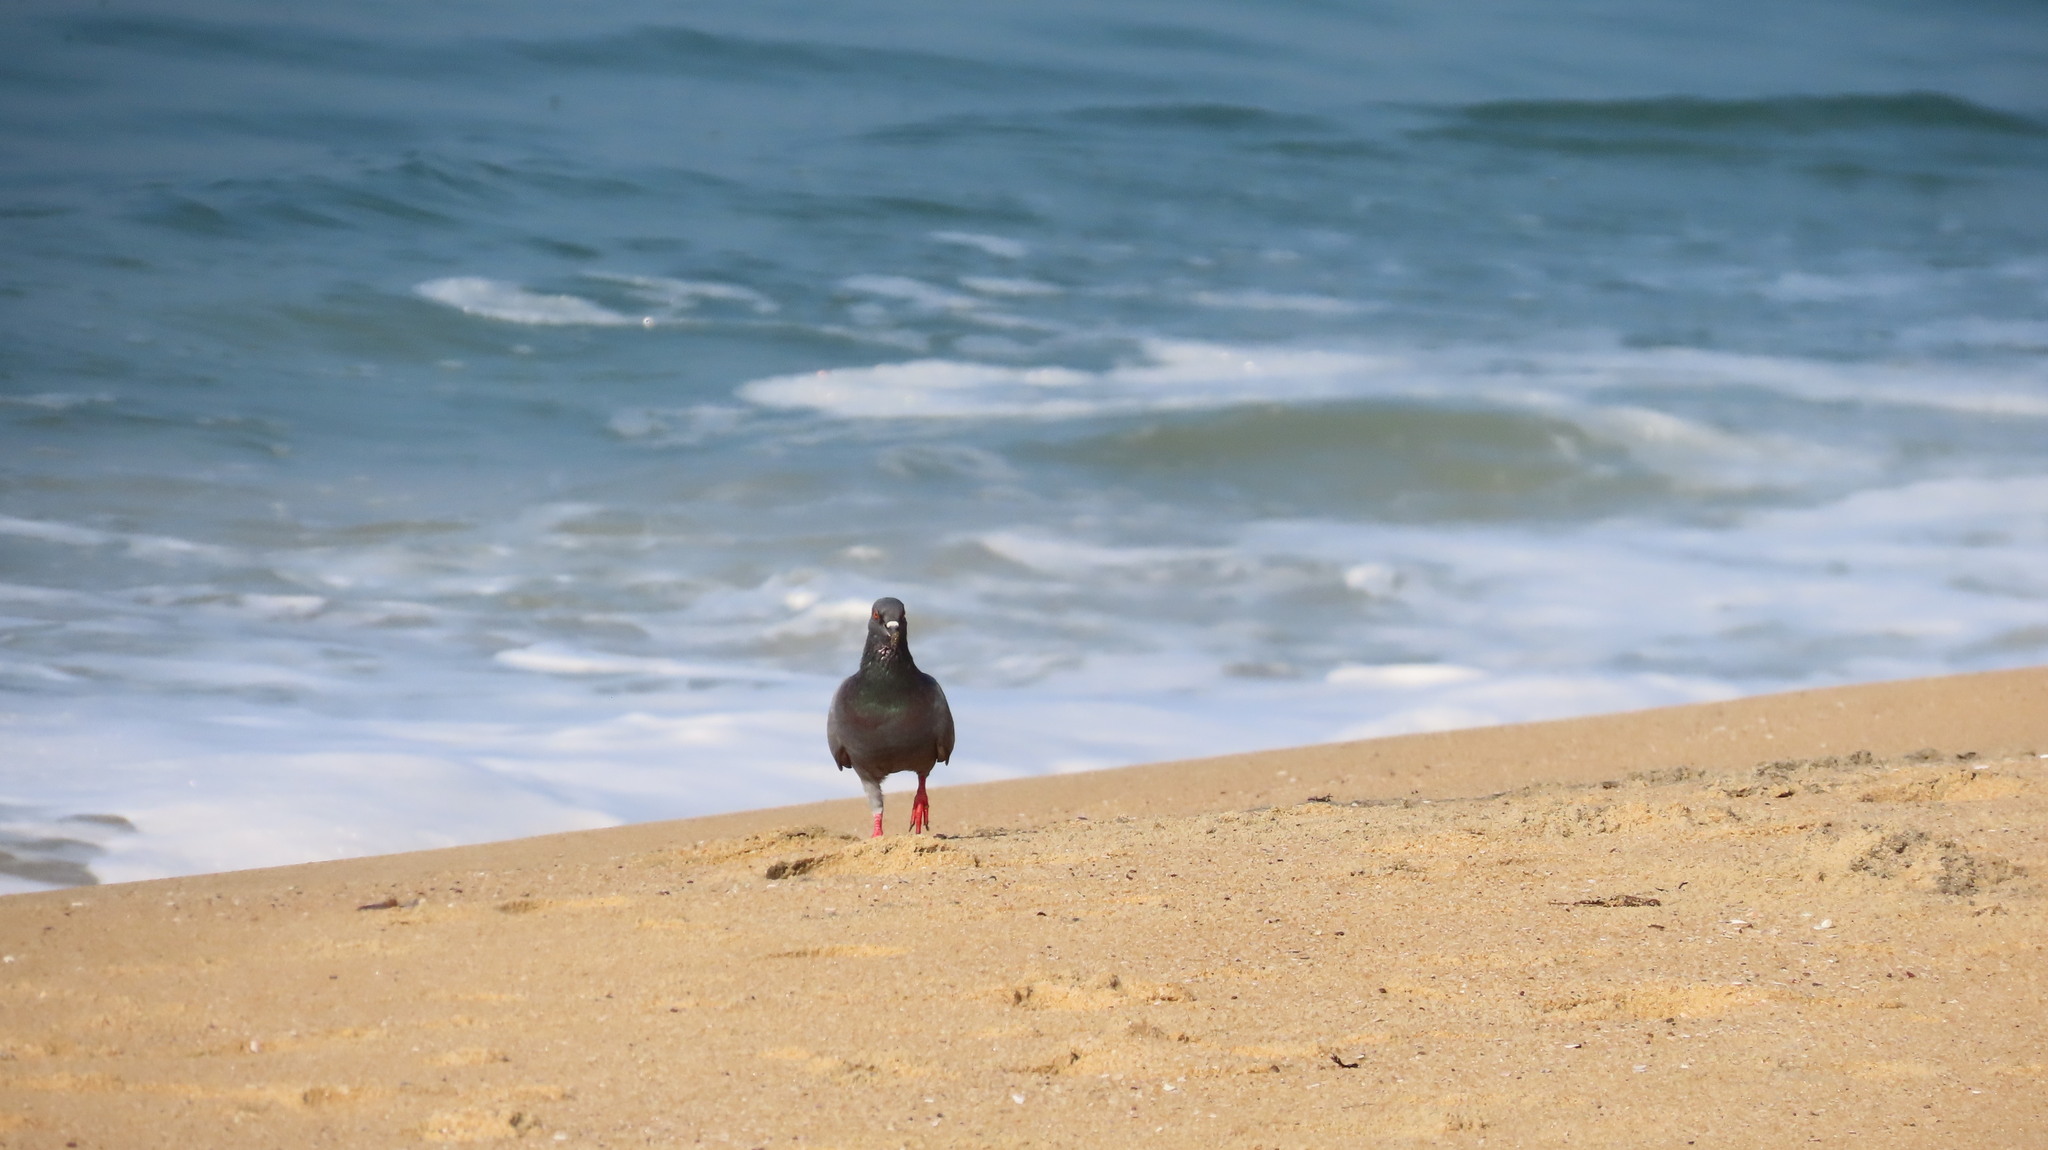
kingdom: Animalia
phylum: Chordata
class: Aves
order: Columbiformes
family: Columbidae
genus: Columba
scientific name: Columba livia
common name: Rock pigeon
